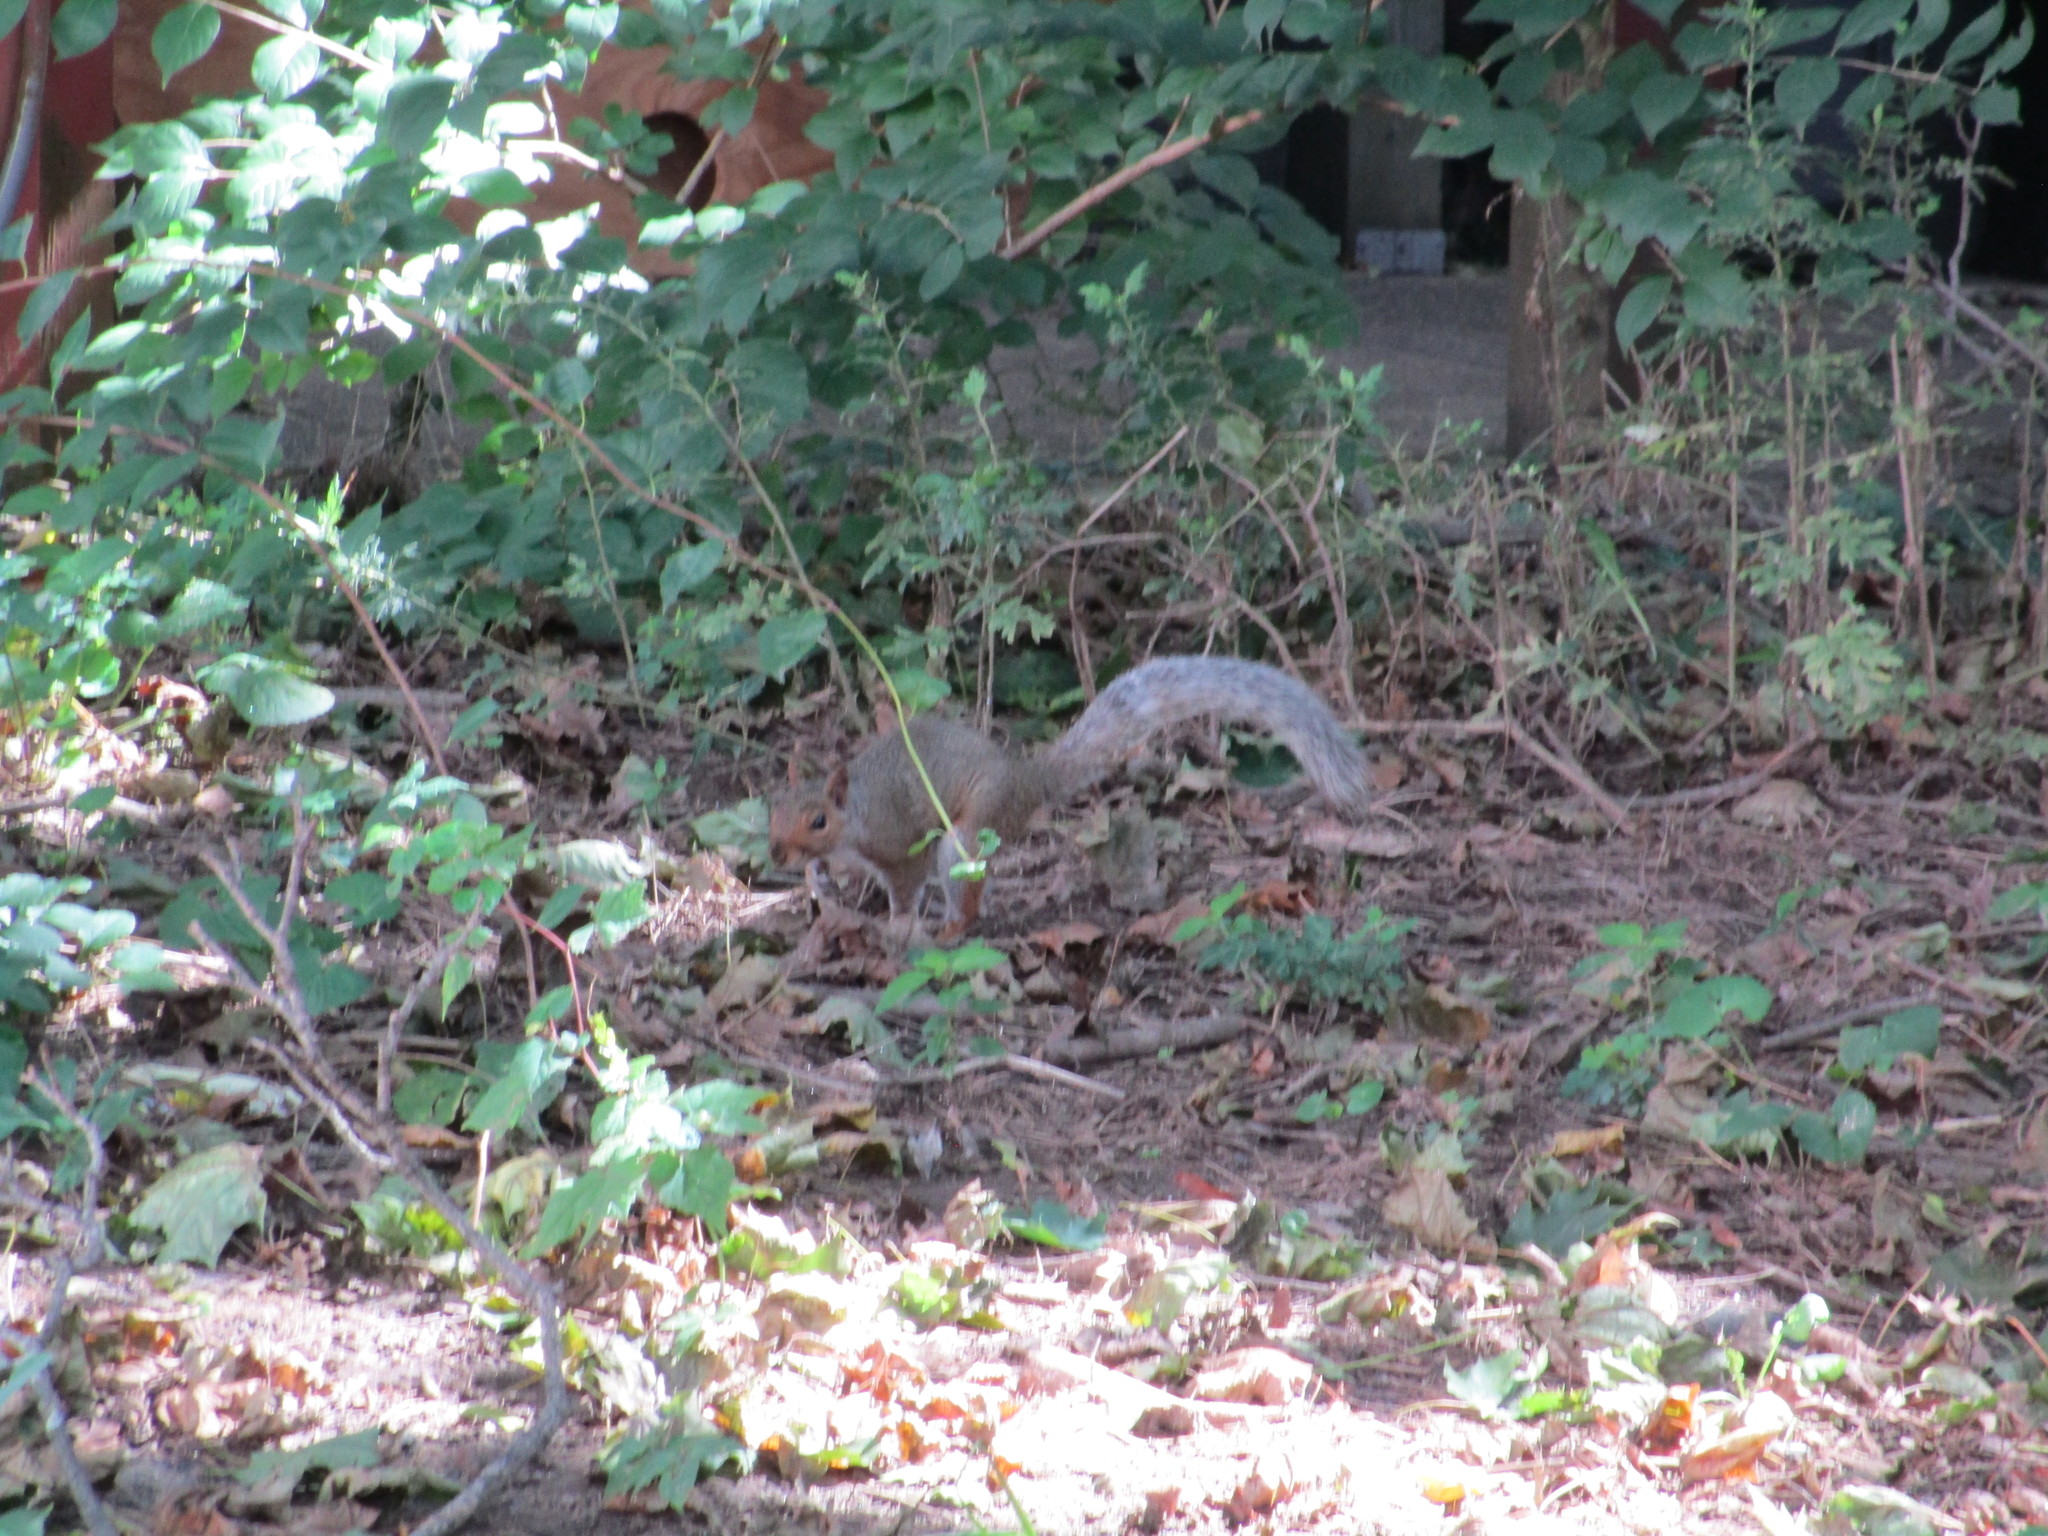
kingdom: Animalia
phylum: Chordata
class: Mammalia
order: Rodentia
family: Sciuridae
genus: Sciurus
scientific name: Sciurus carolinensis
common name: Eastern gray squirrel
